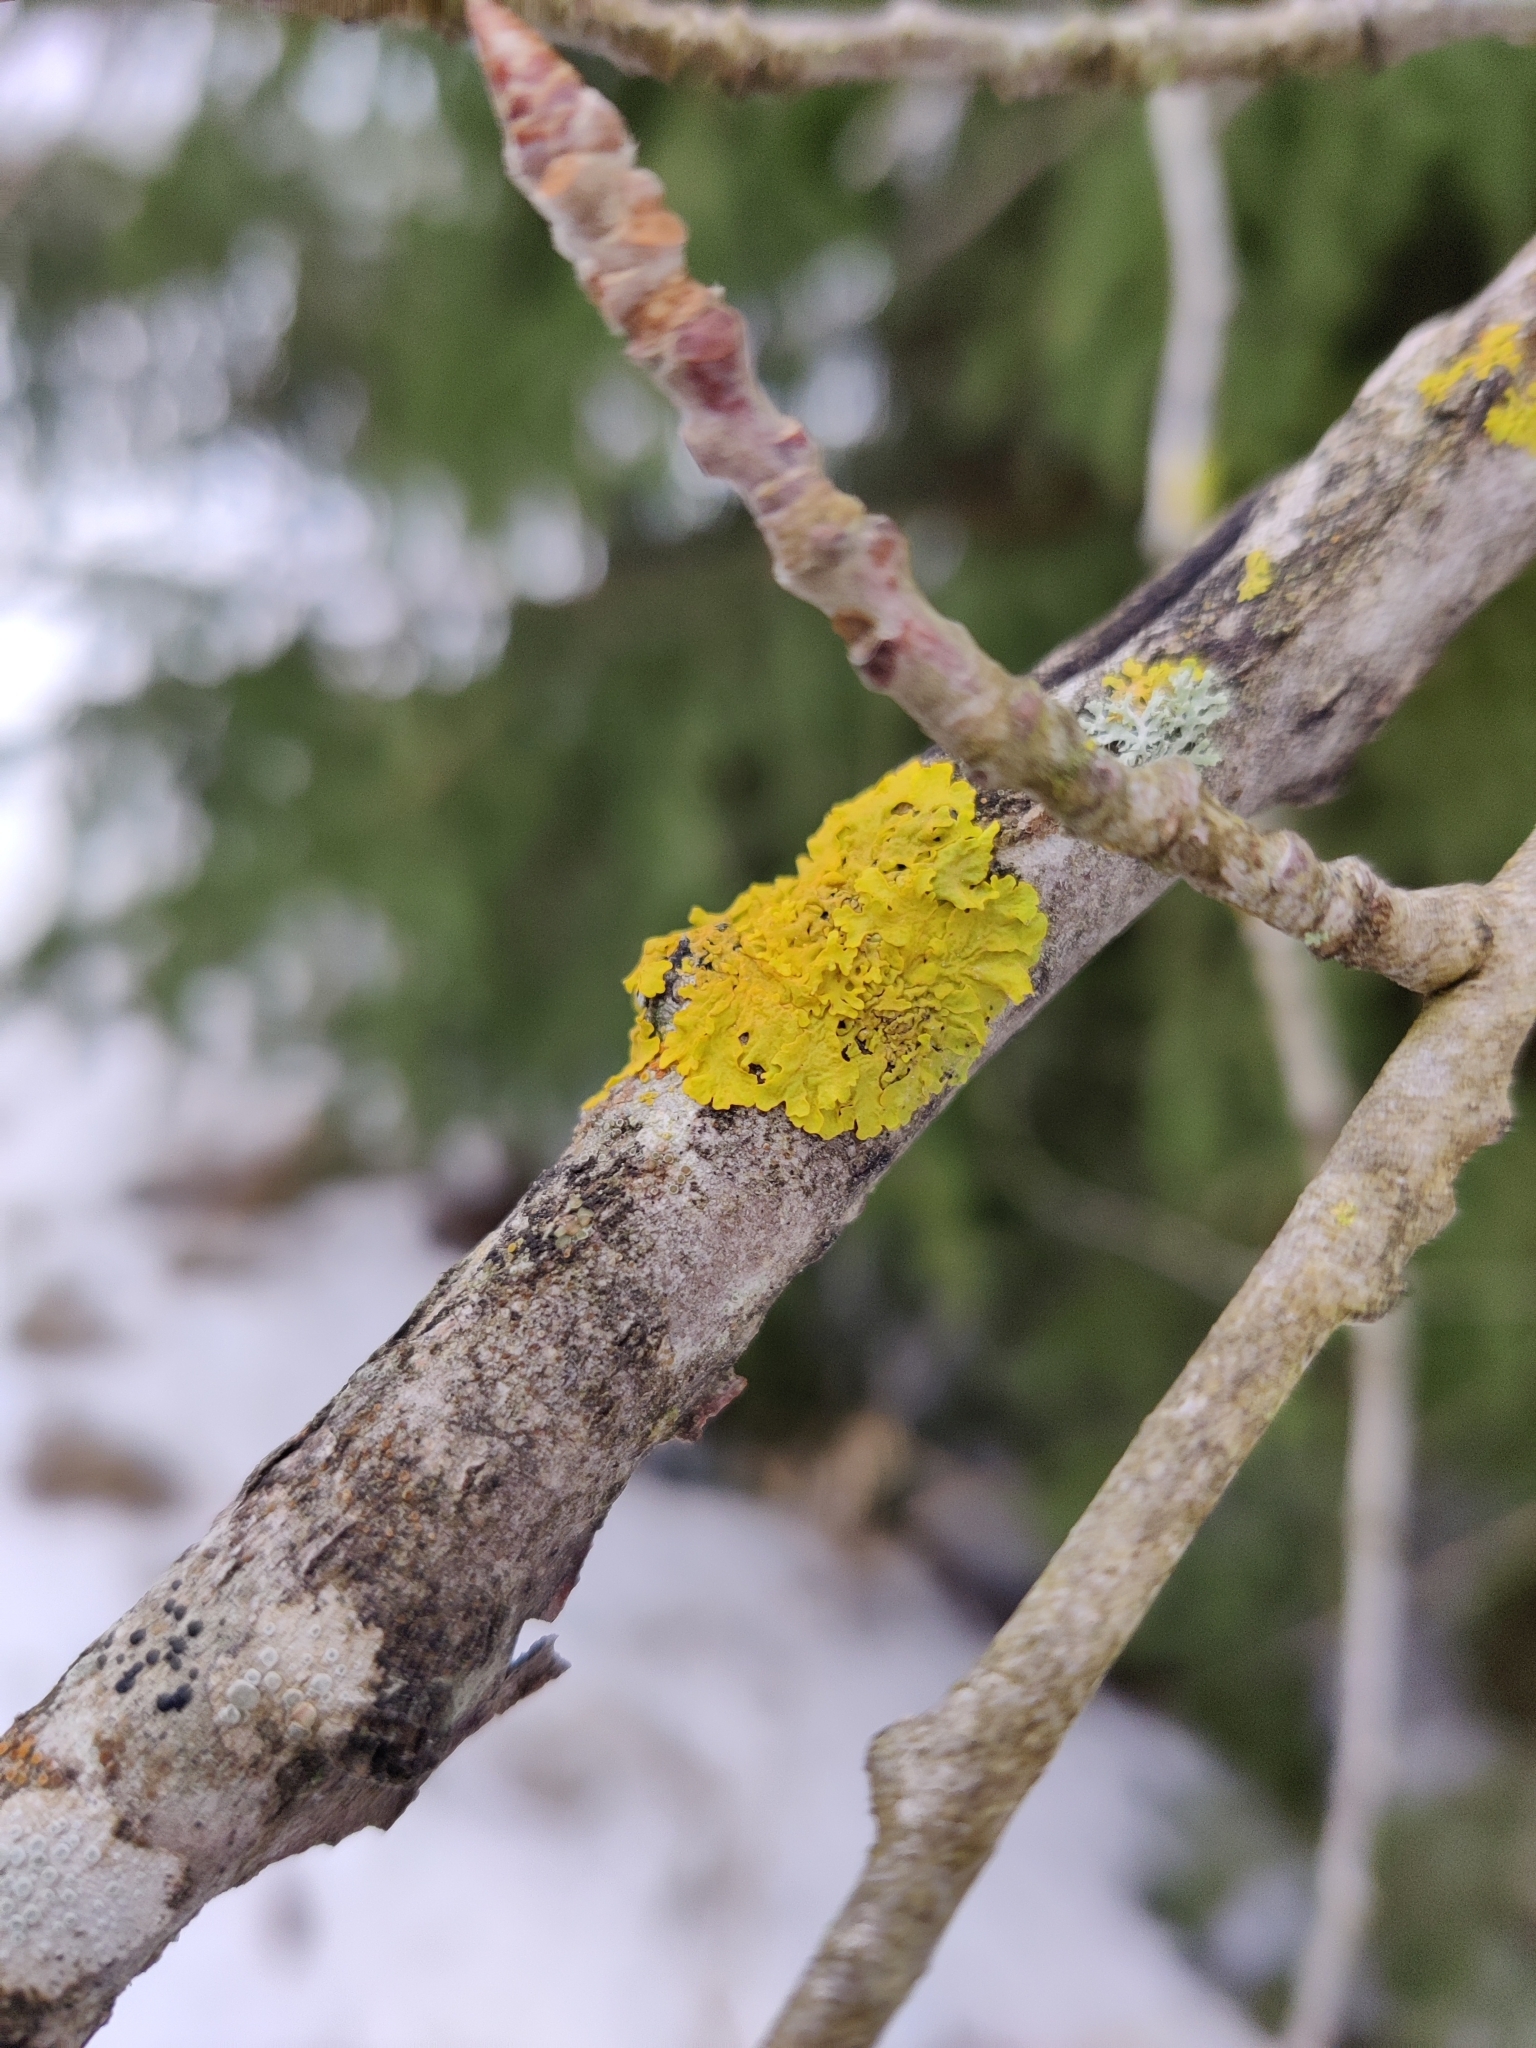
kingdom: Fungi
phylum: Ascomycota
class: Lecanoromycetes
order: Teloschistales
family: Teloschistaceae
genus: Xanthoria
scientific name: Xanthoria parietina
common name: Common orange lichen
